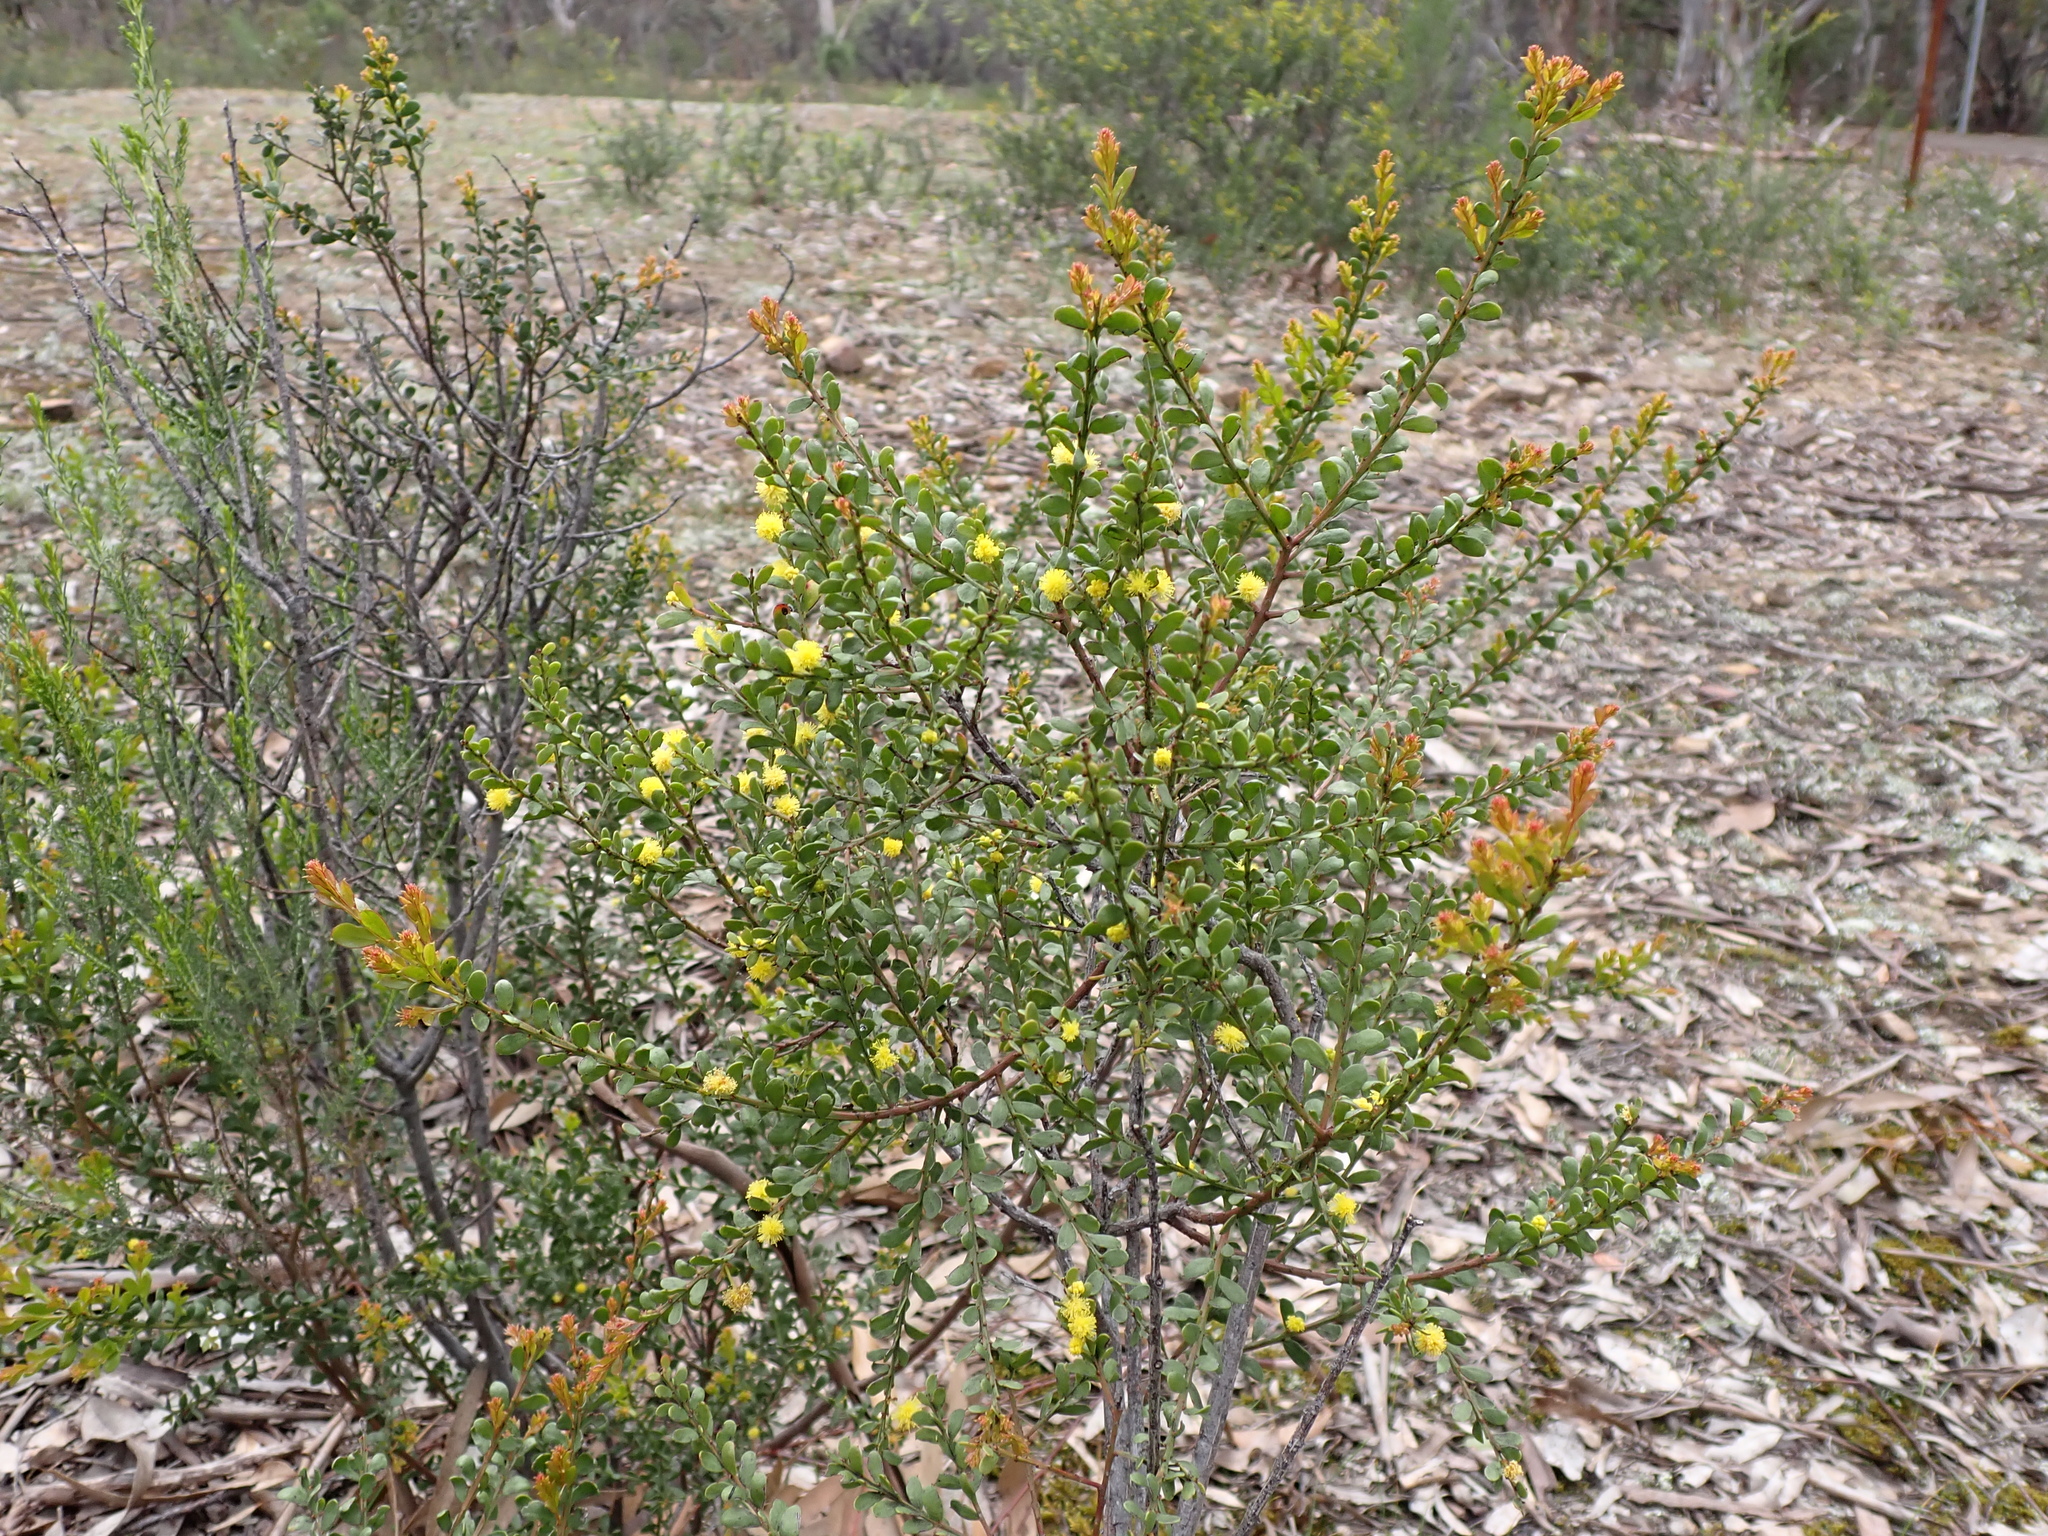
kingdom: Plantae
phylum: Tracheophyta
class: Magnoliopsida
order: Fabales
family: Fabaceae
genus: Acacia
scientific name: Acacia acinacea
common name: Gold-dust acacia
